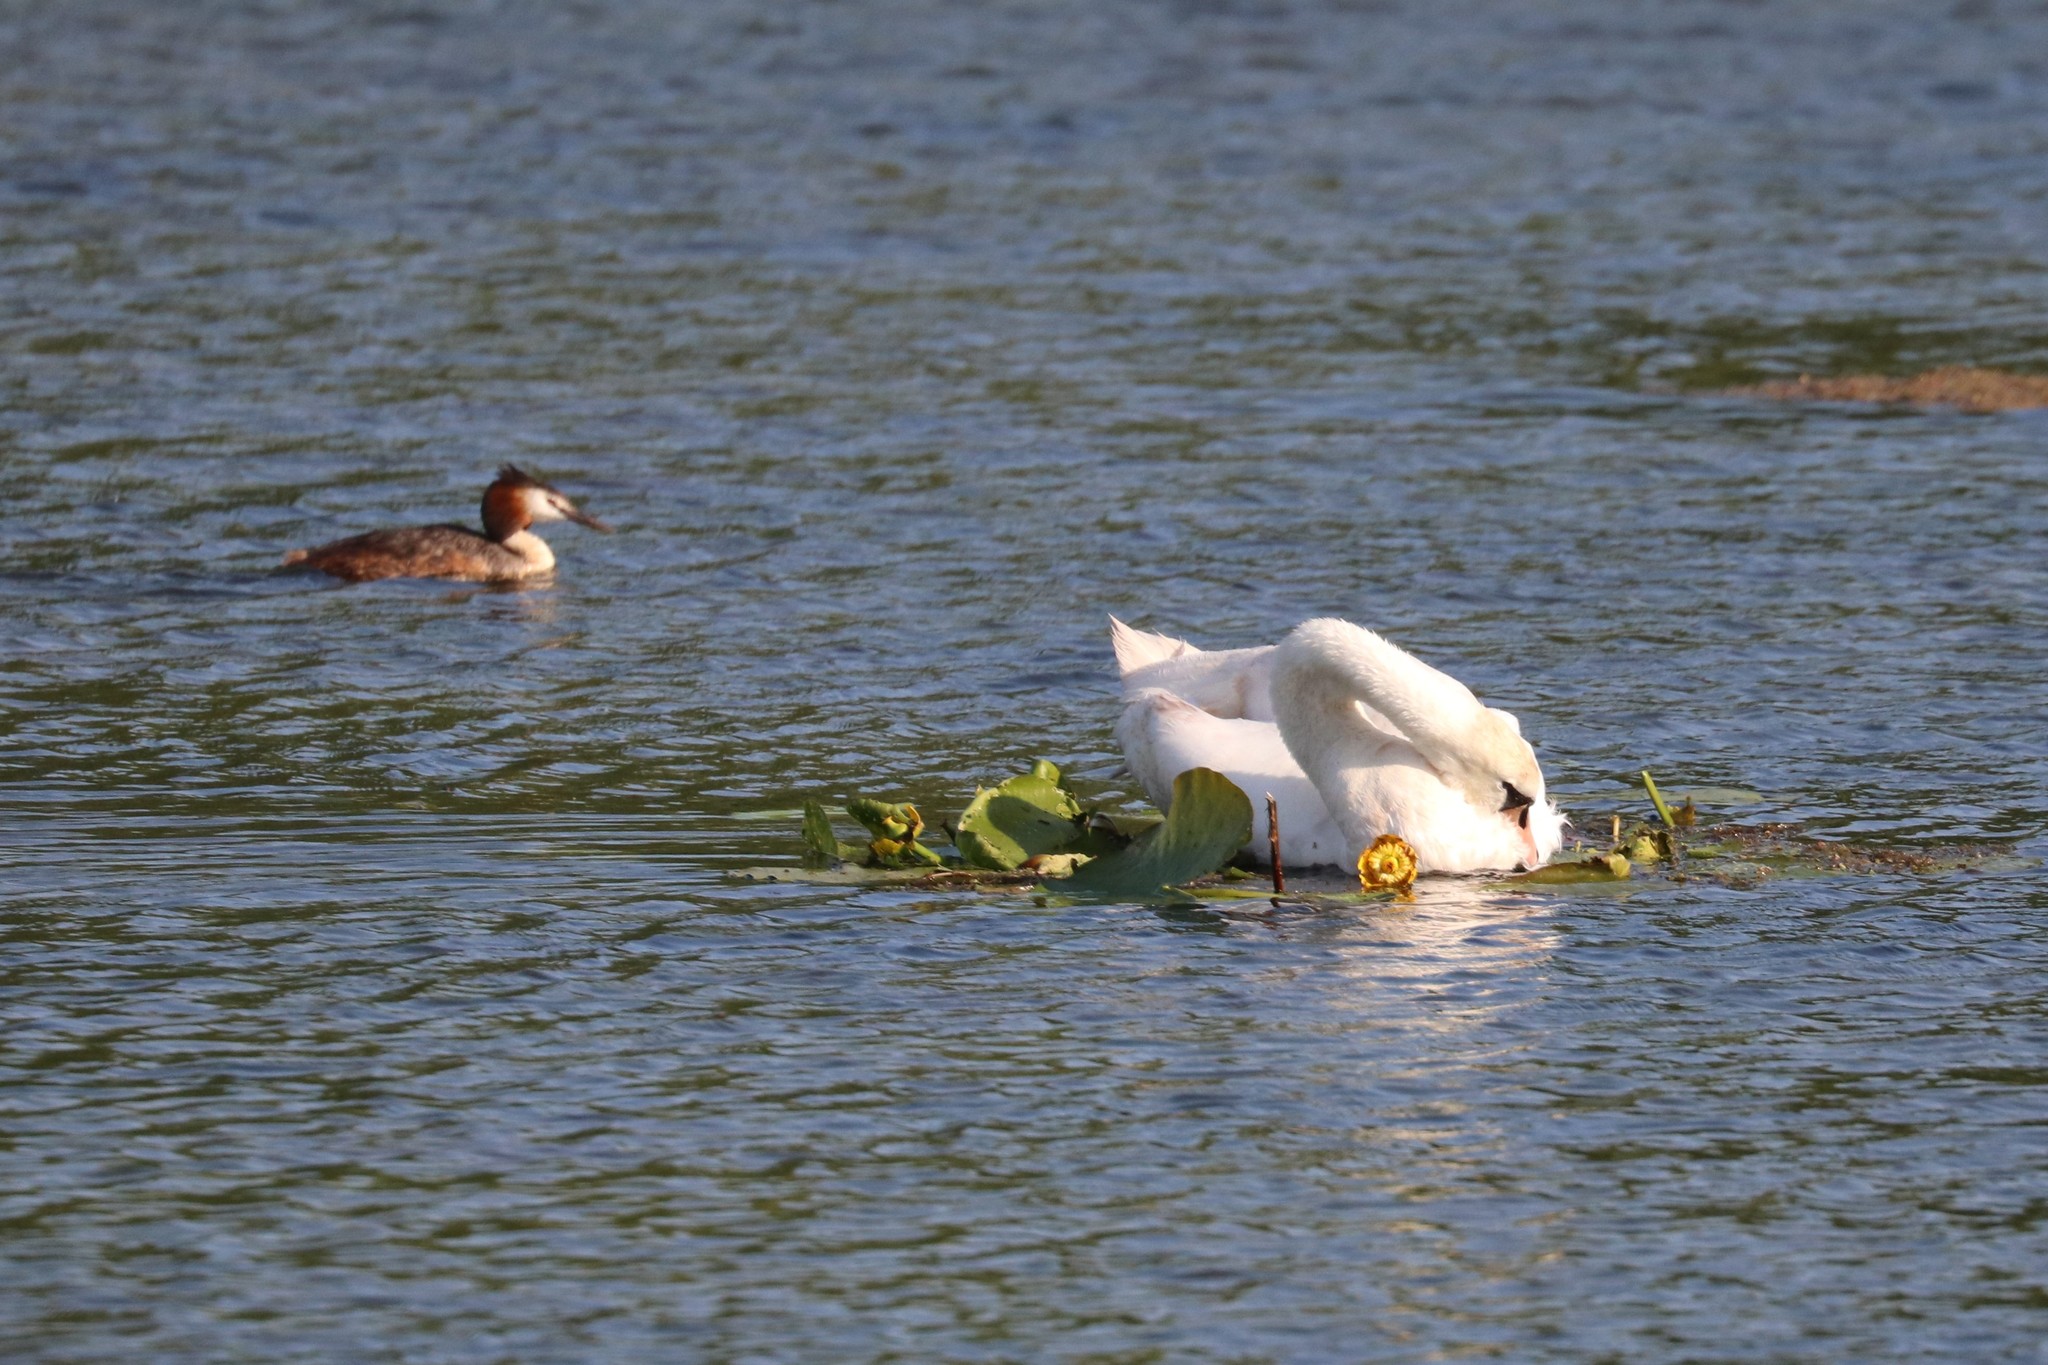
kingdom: Animalia
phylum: Chordata
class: Aves
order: Anseriformes
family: Anatidae
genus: Cygnus
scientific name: Cygnus olor
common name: Mute swan
